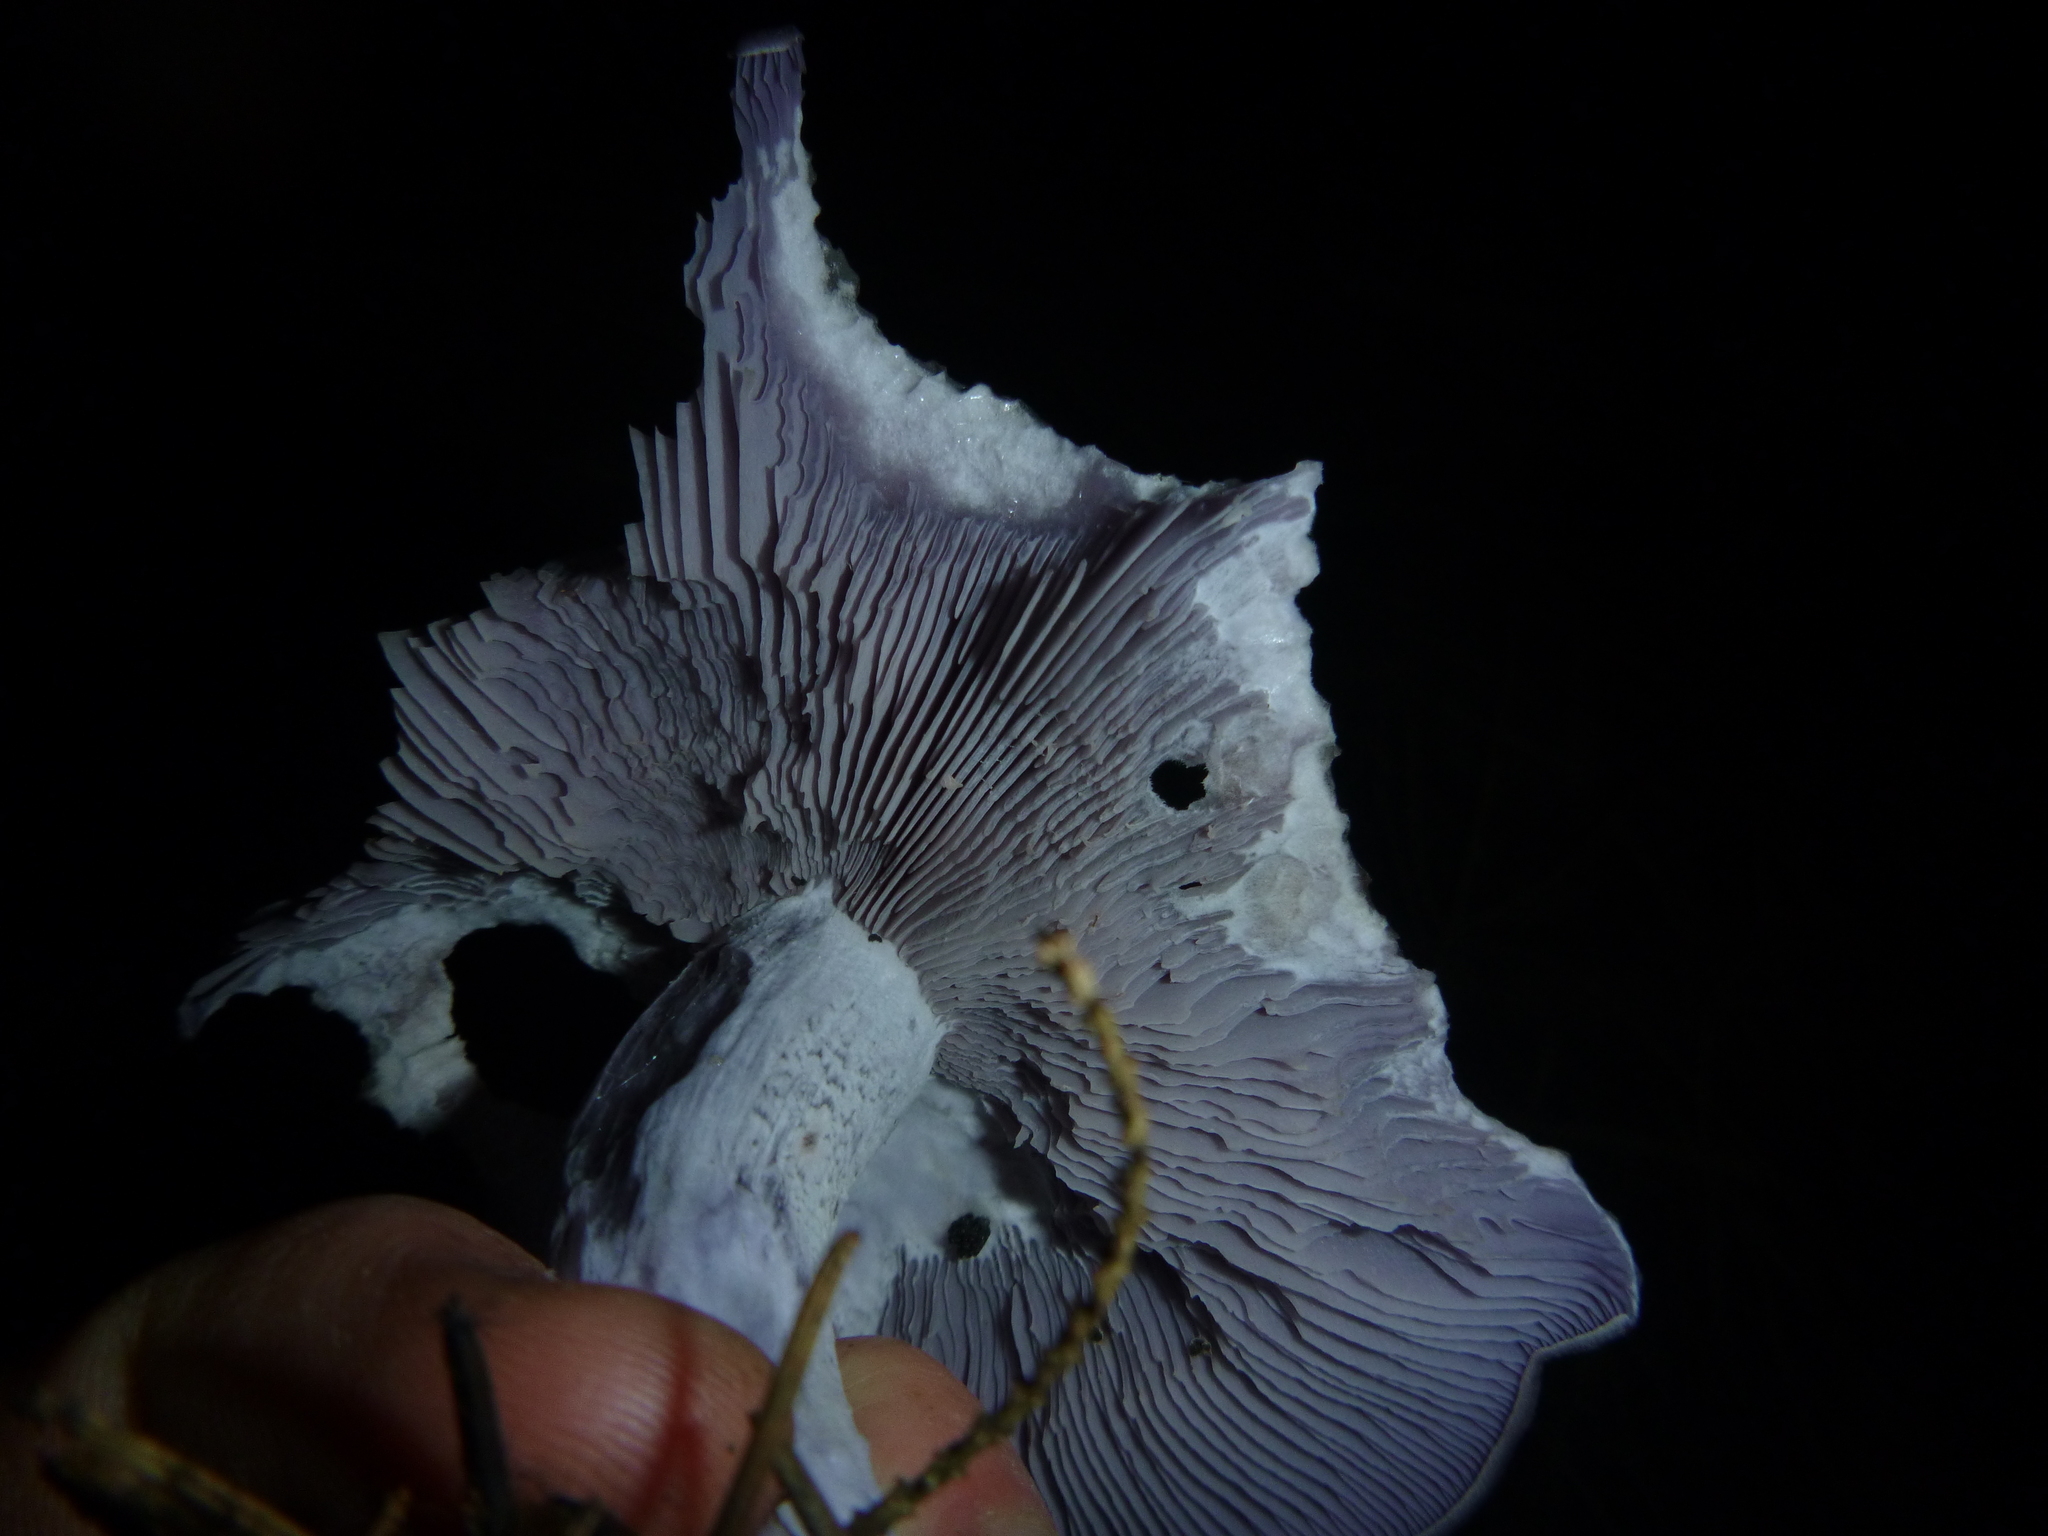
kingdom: Fungi
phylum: Basidiomycota
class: Agaricomycetes
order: Agaricales
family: Tricholomataceae
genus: Collybia
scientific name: Collybia
